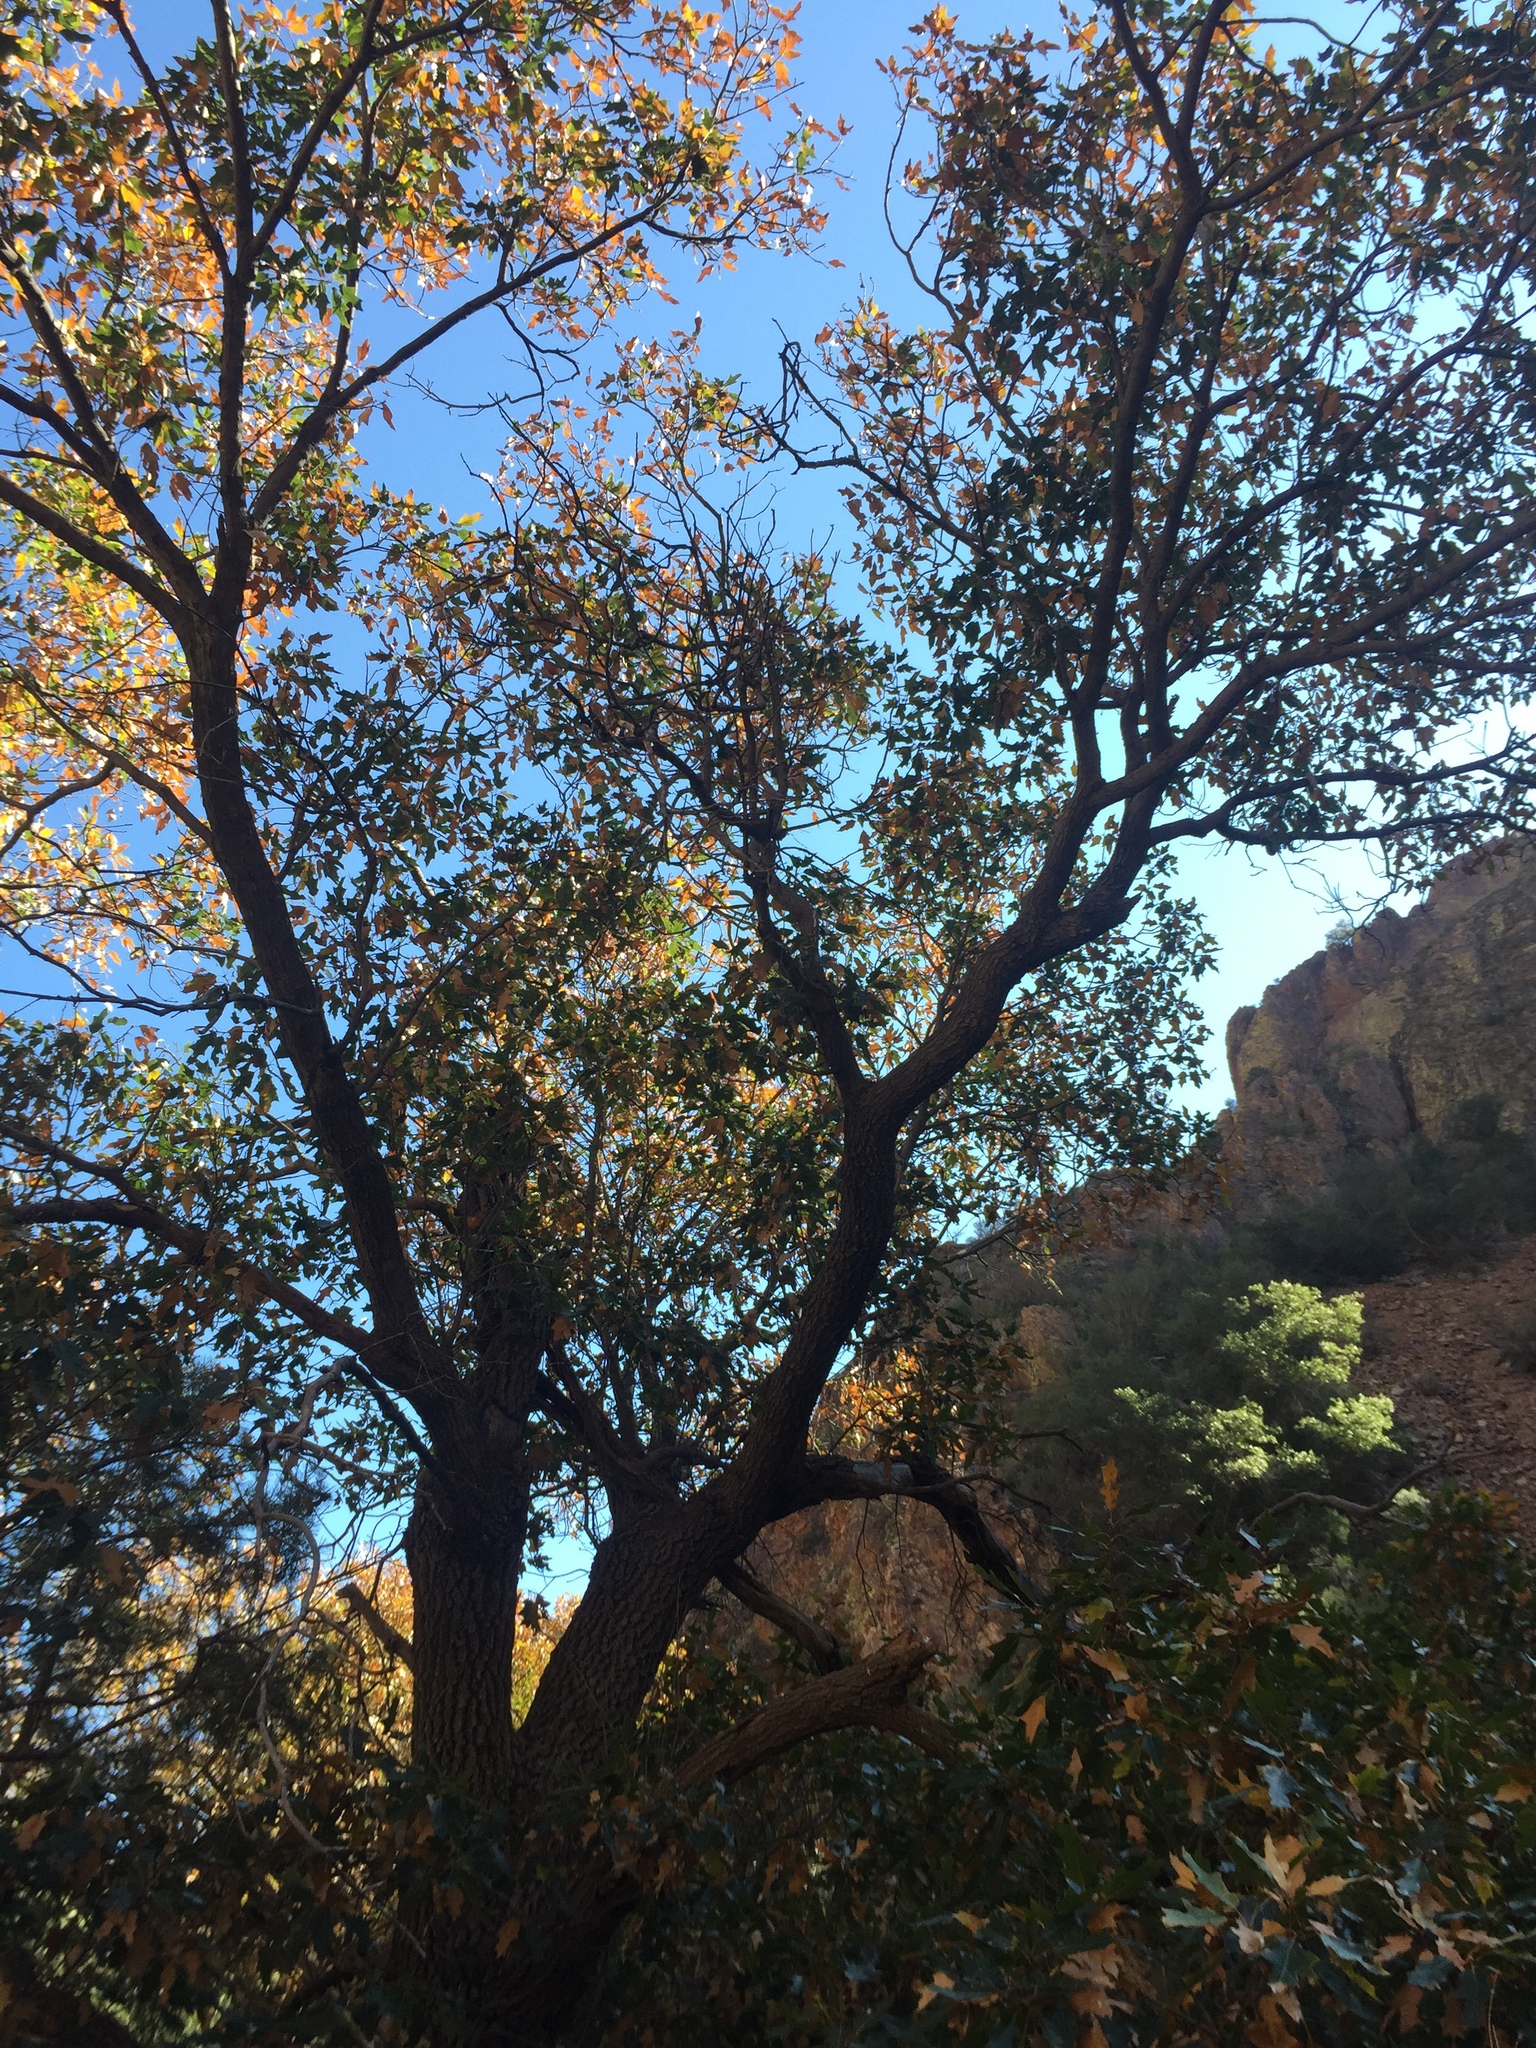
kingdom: Plantae
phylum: Tracheophyta
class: Magnoliopsida
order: Fagales
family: Fagaceae
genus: Quercus
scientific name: Quercus gravesii
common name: Chisos red oak
